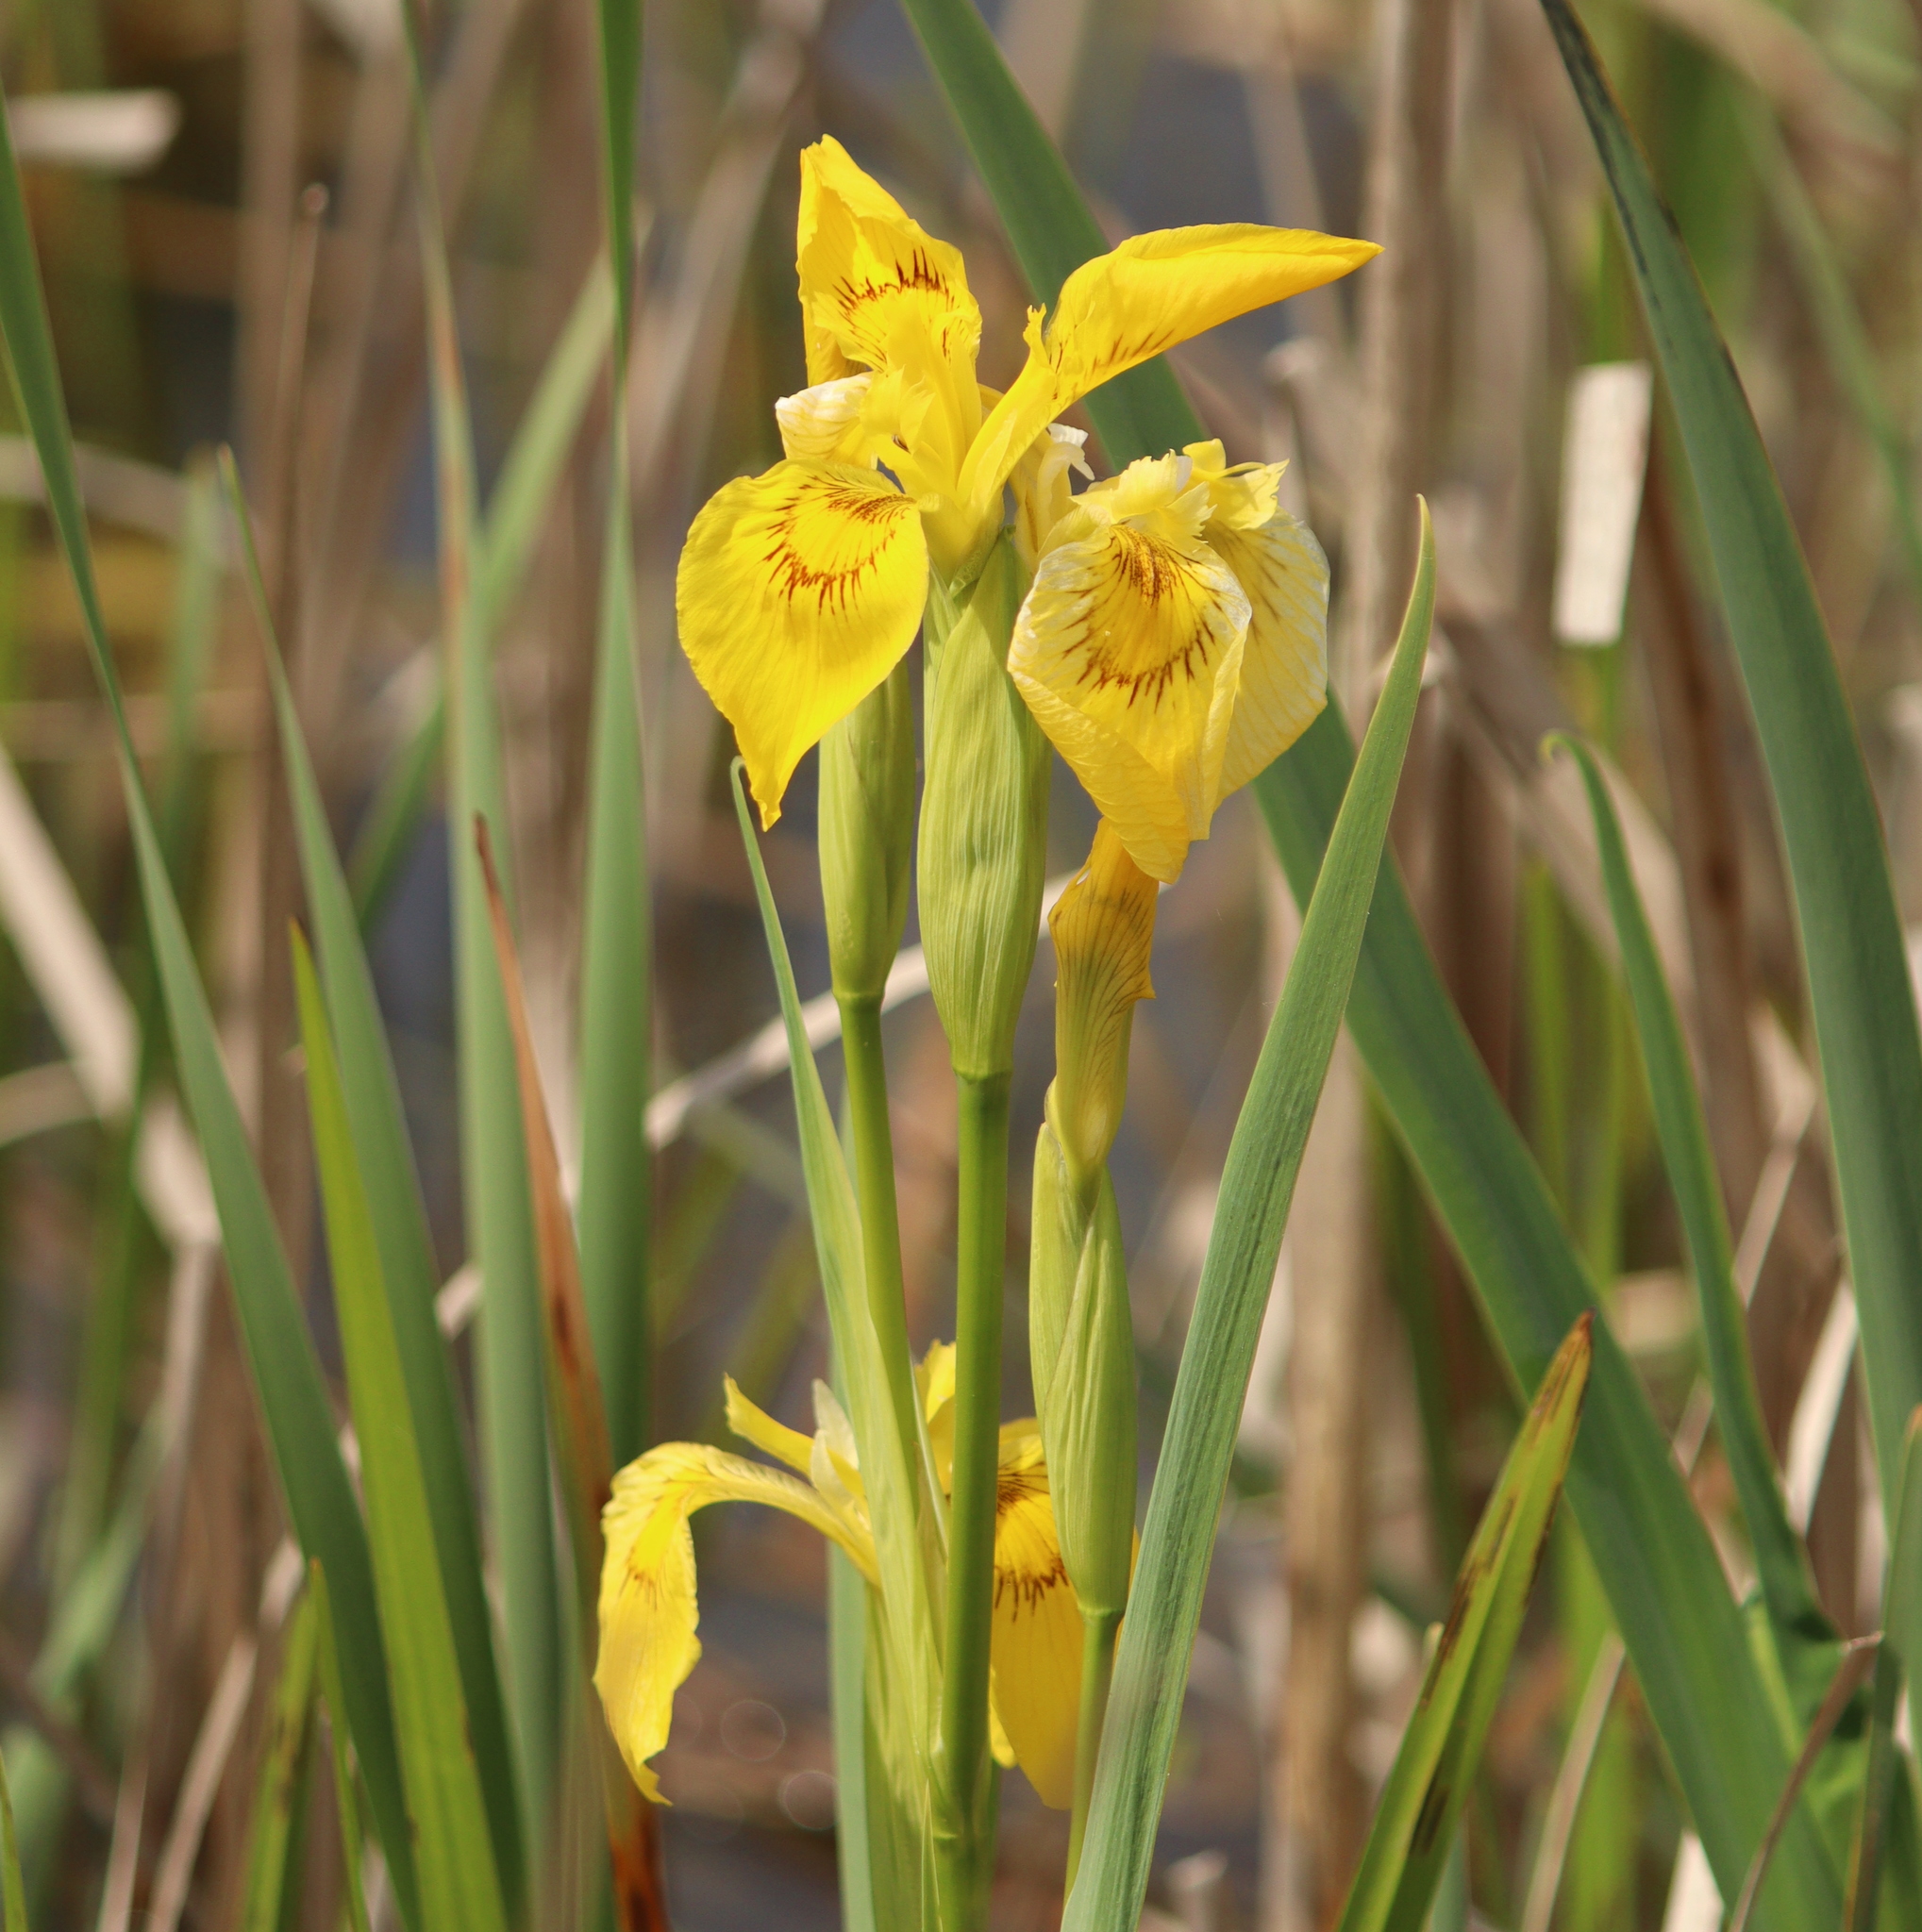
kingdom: Plantae
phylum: Tracheophyta
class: Liliopsida
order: Asparagales
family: Iridaceae
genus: Iris
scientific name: Iris pseudacorus
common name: Yellow flag
